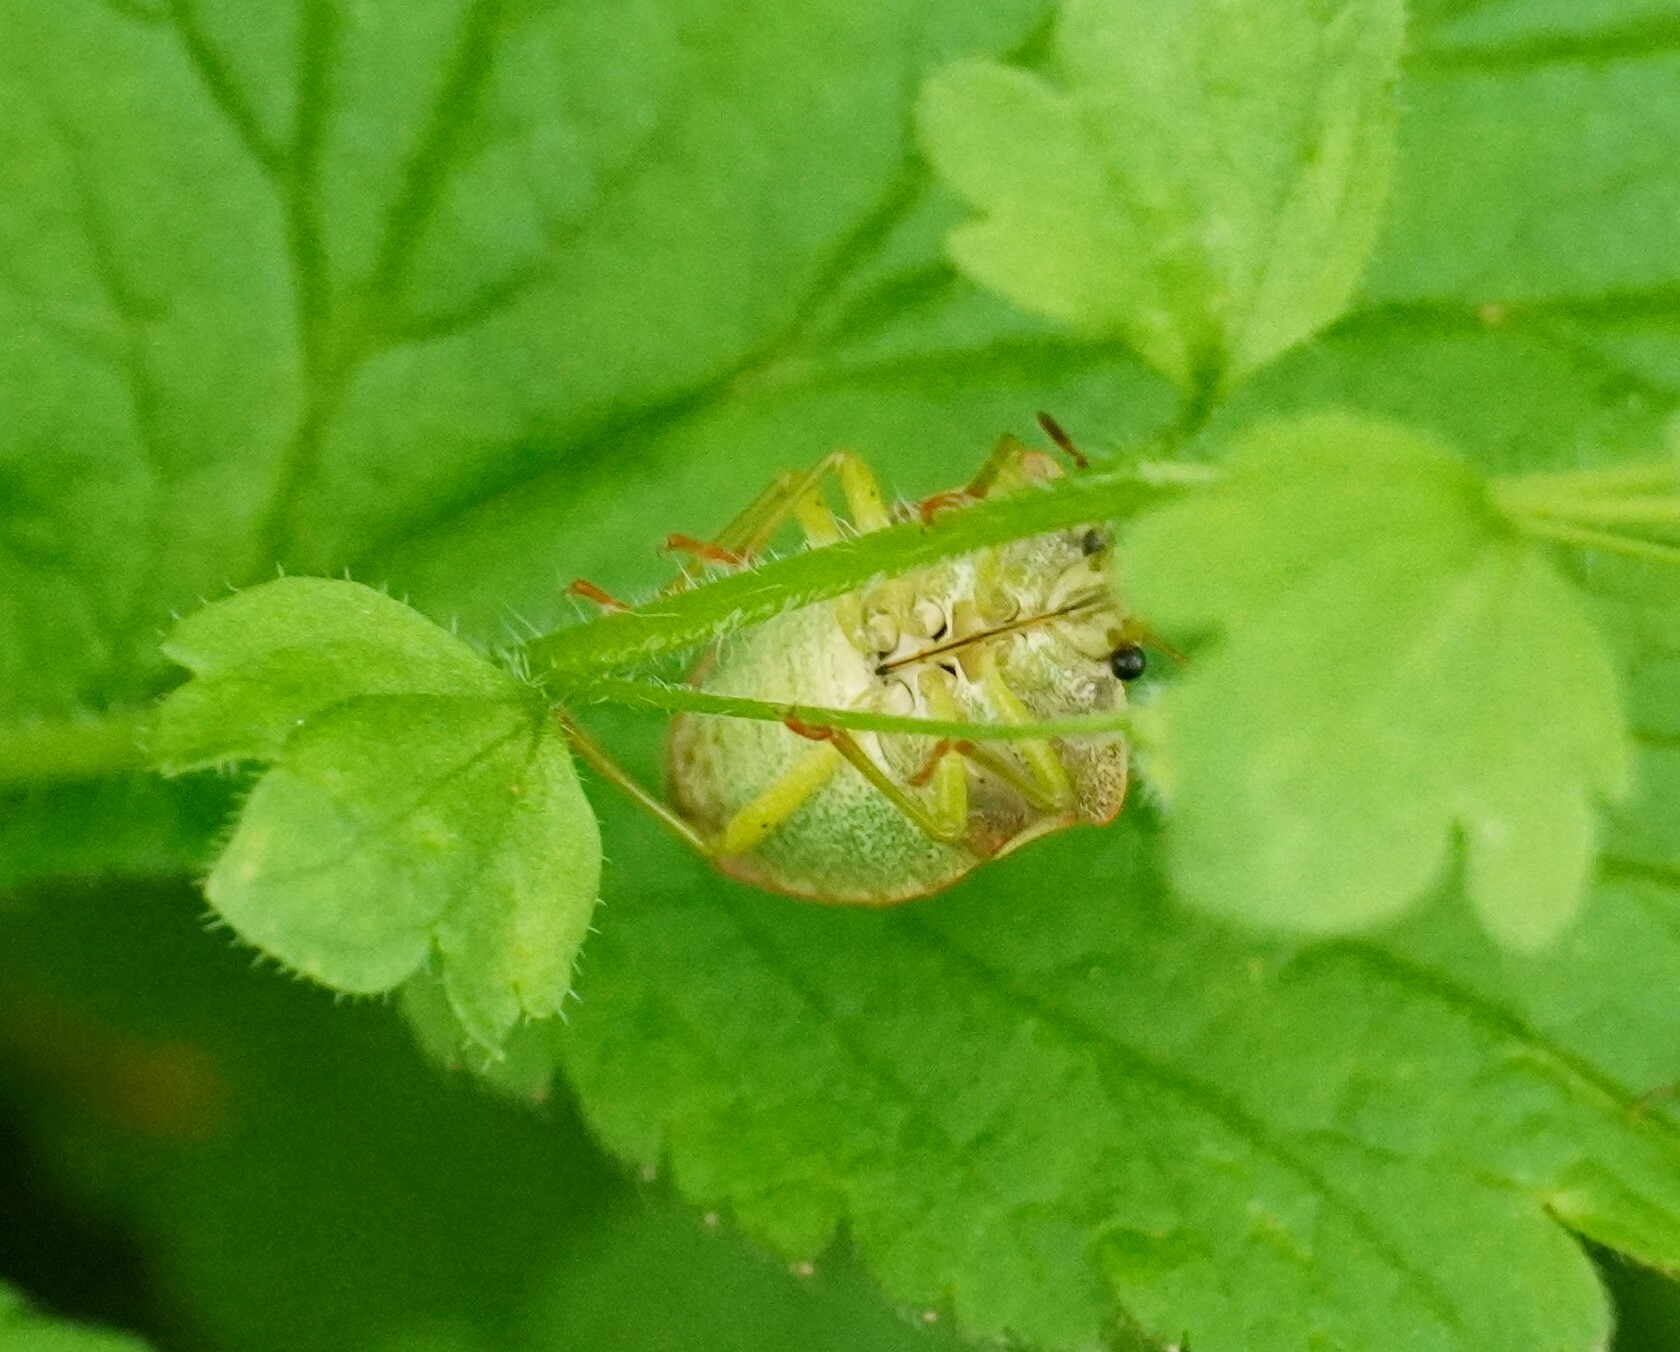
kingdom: Animalia
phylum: Arthropoda
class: Insecta
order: Hemiptera
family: Pentatomidae
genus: Palomena
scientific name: Palomena prasina
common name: Green shieldbug
